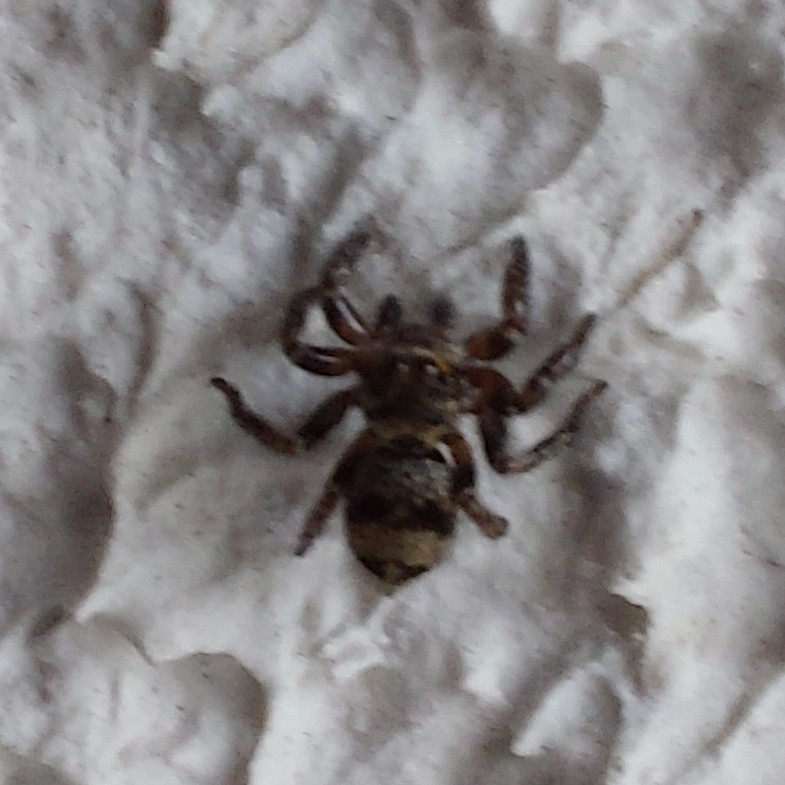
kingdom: Animalia
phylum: Arthropoda
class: Arachnida
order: Araneae
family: Salticidae
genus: Corythalia
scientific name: Corythalia conferta
